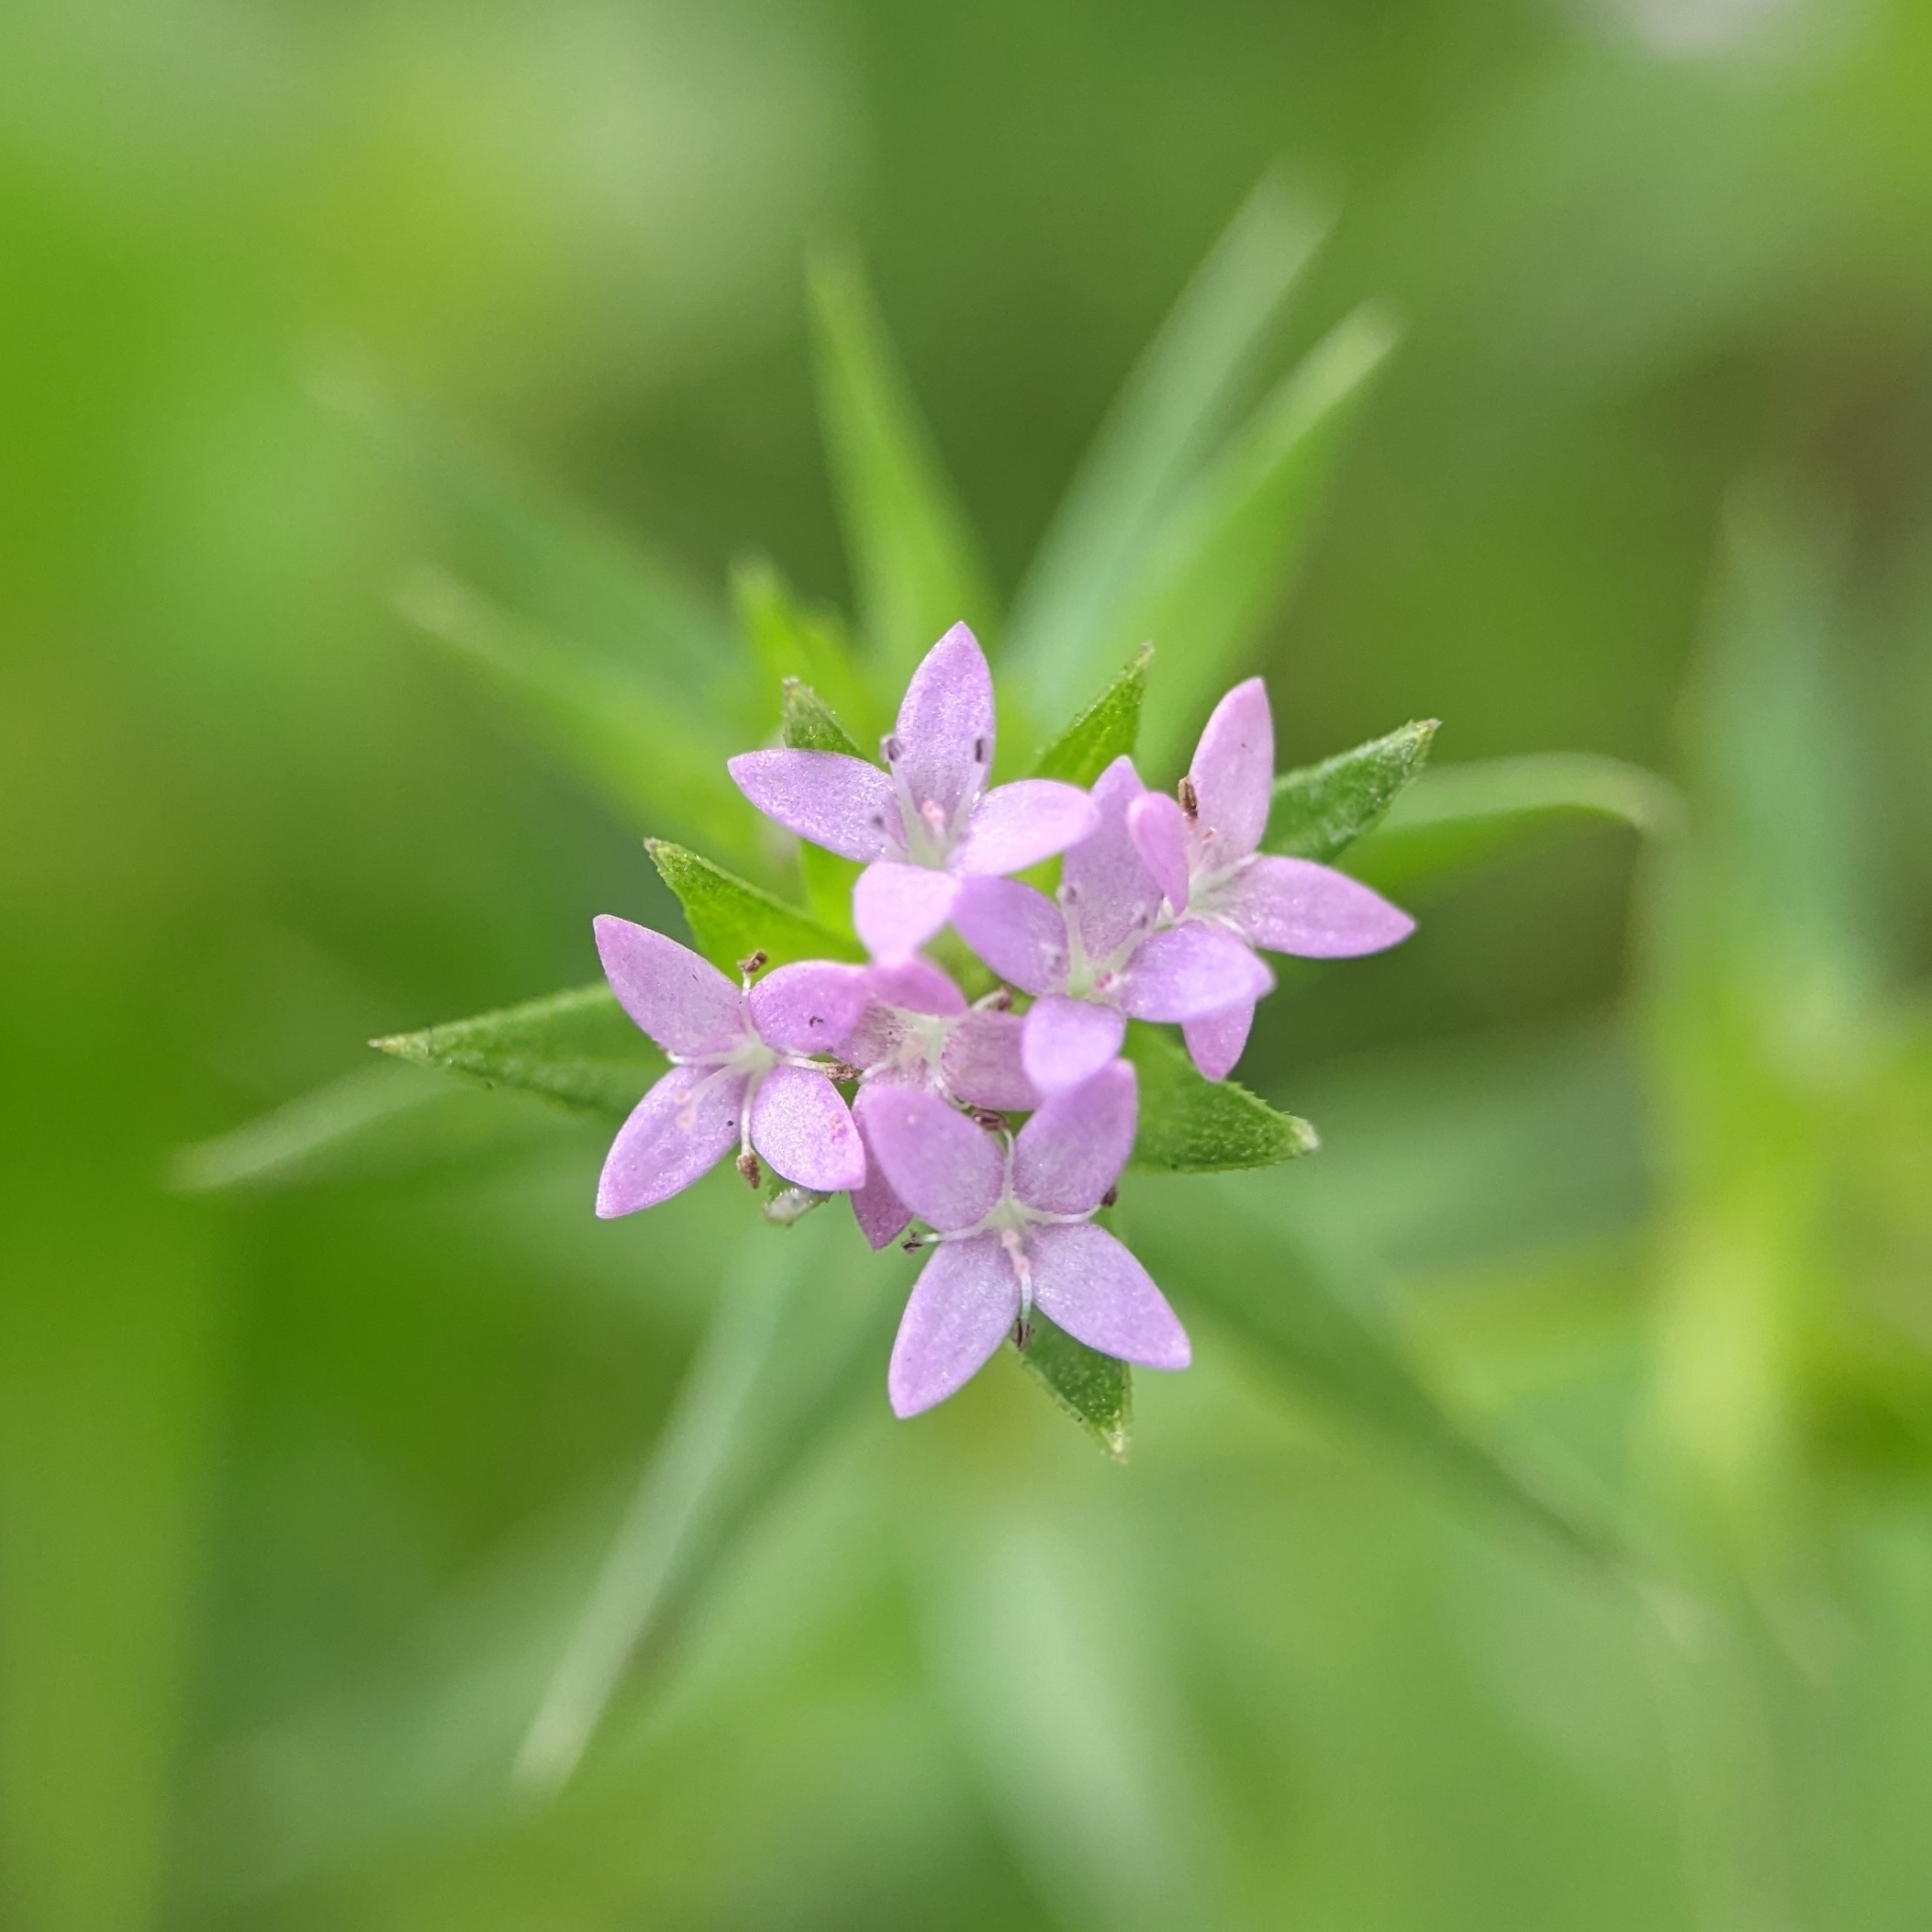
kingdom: Plantae
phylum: Tracheophyta
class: Magnoliopsida
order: Gentianales
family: Rubiaceae
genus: Sherardia
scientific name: Sherardia arvensis
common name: Field madder
